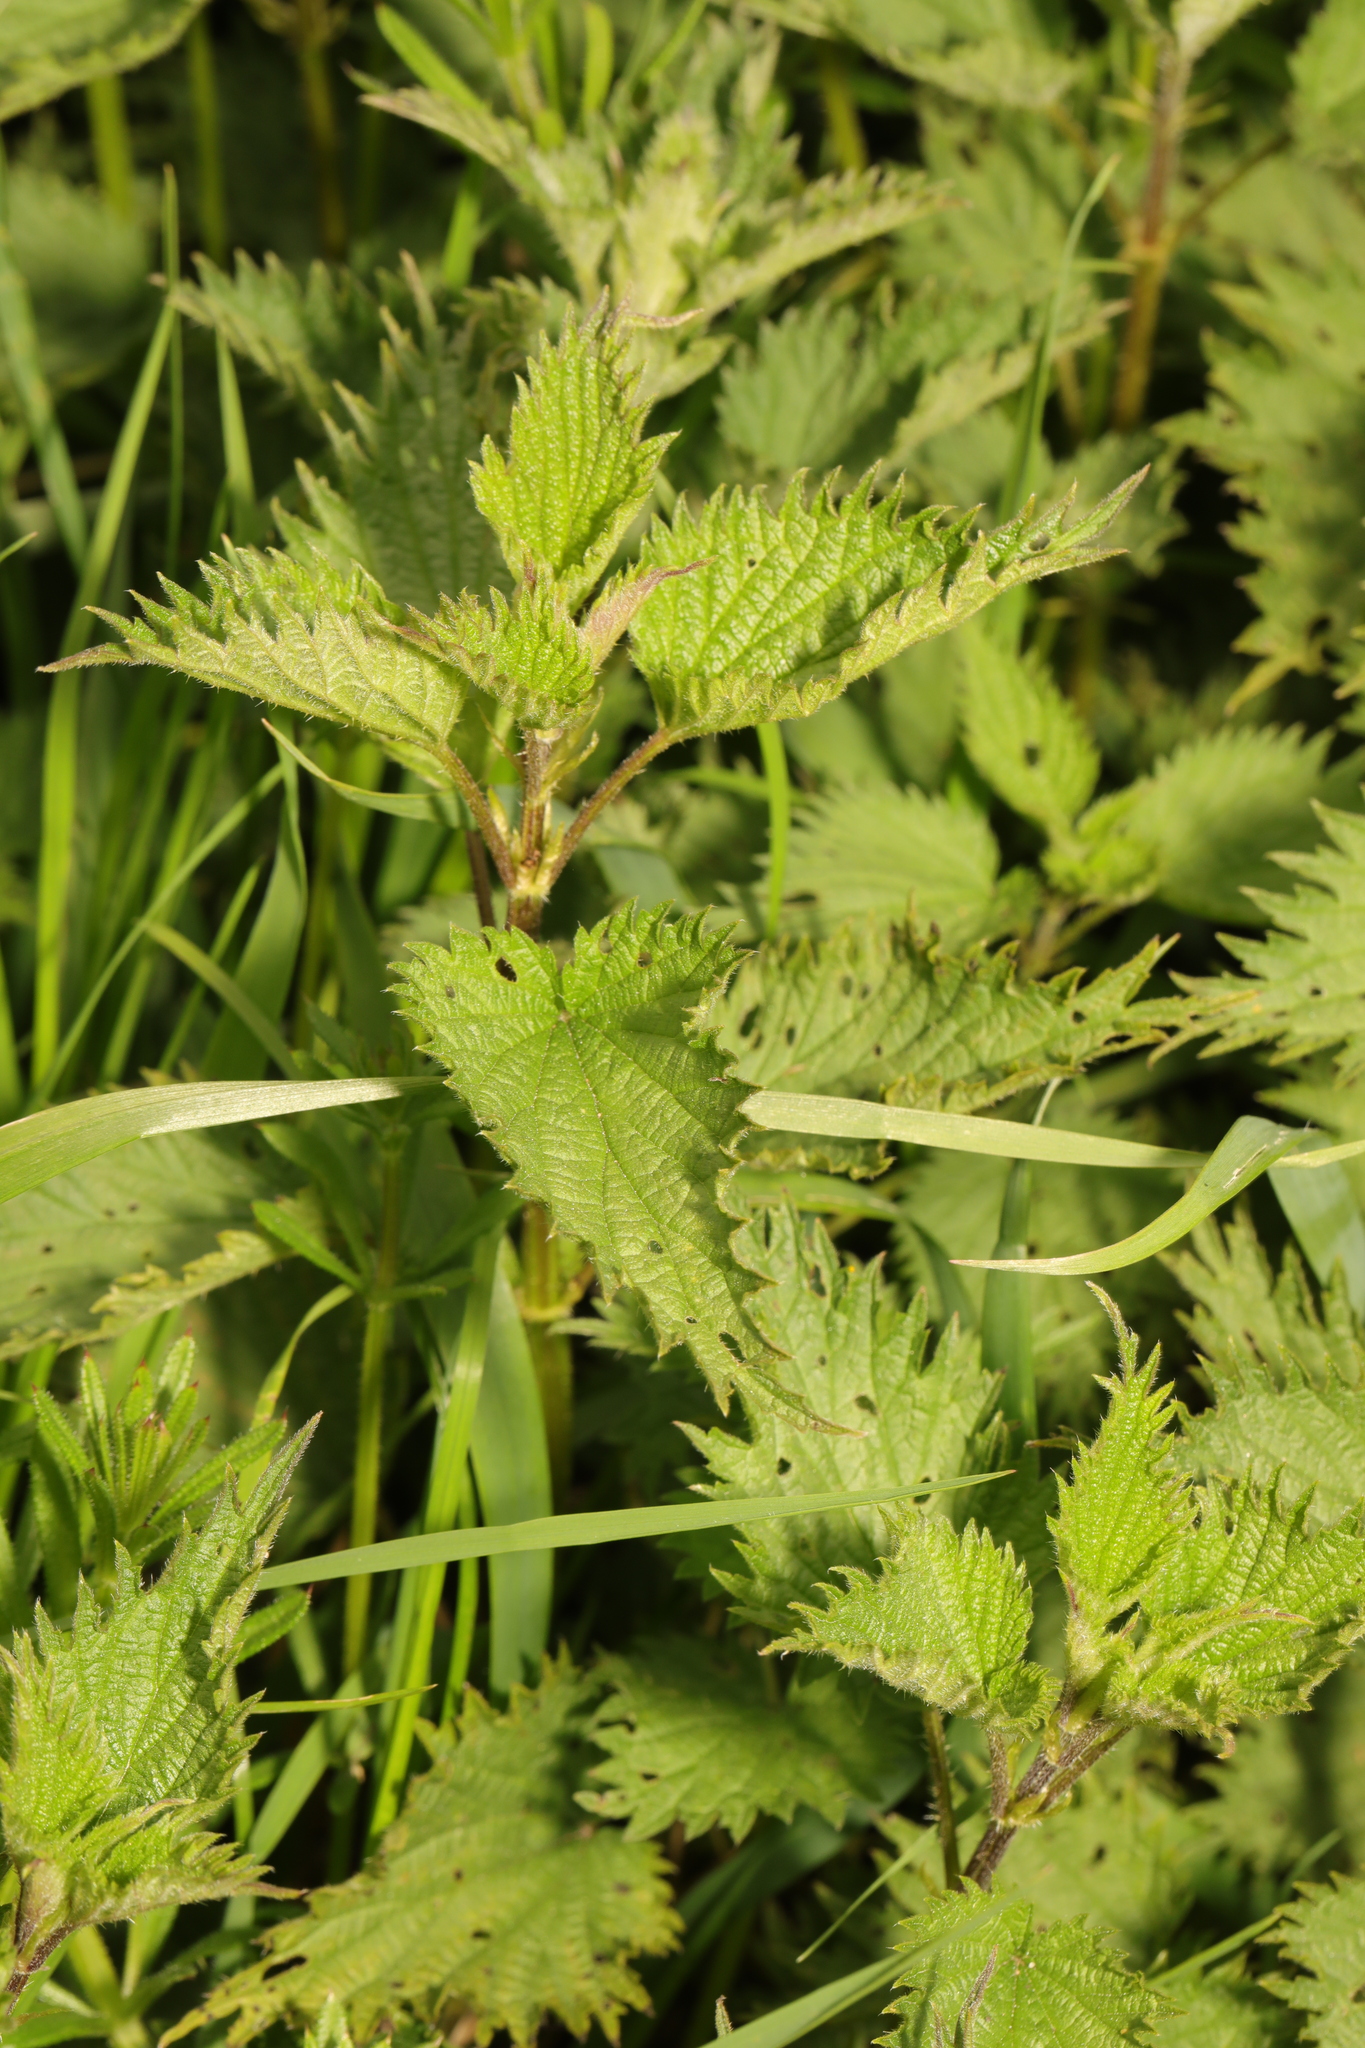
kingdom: Plantae
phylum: Tracheophyta
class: Magnoliopsida
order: Rosales
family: Urticaceae
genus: Urtica
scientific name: Urtica dioica
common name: Common nettle
